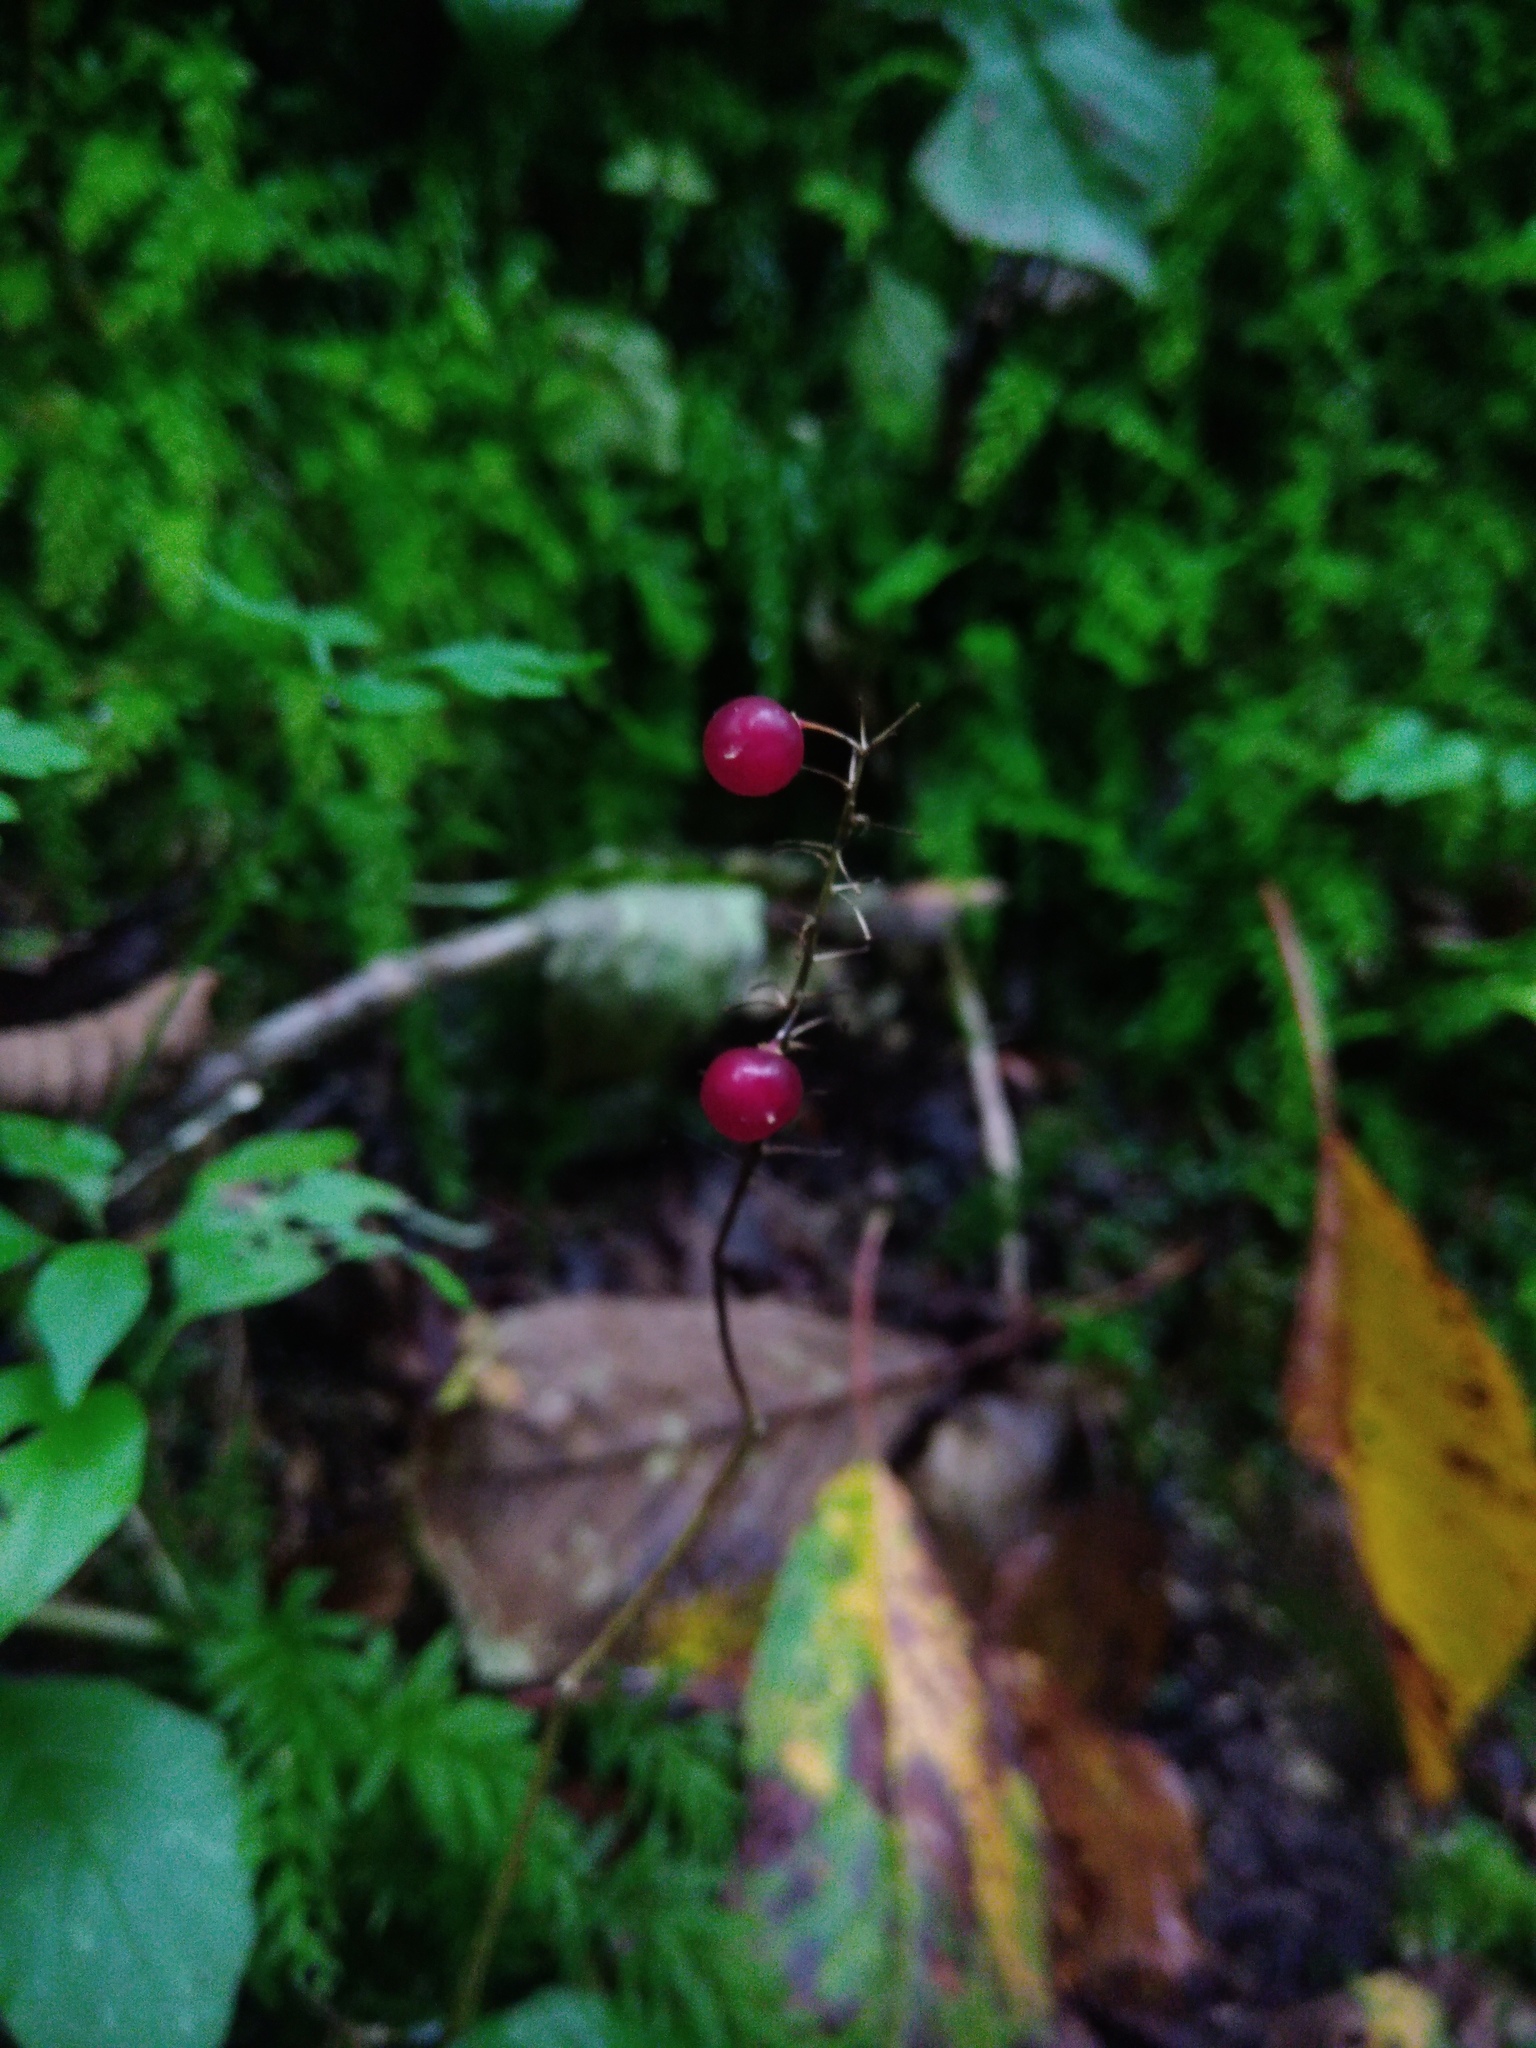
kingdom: Plantae
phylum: Tracheophyta
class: Liliopsida
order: Asparagales
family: Asparagaceae
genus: Maianthemum
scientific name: Maianthemum bifolium
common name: May lily
